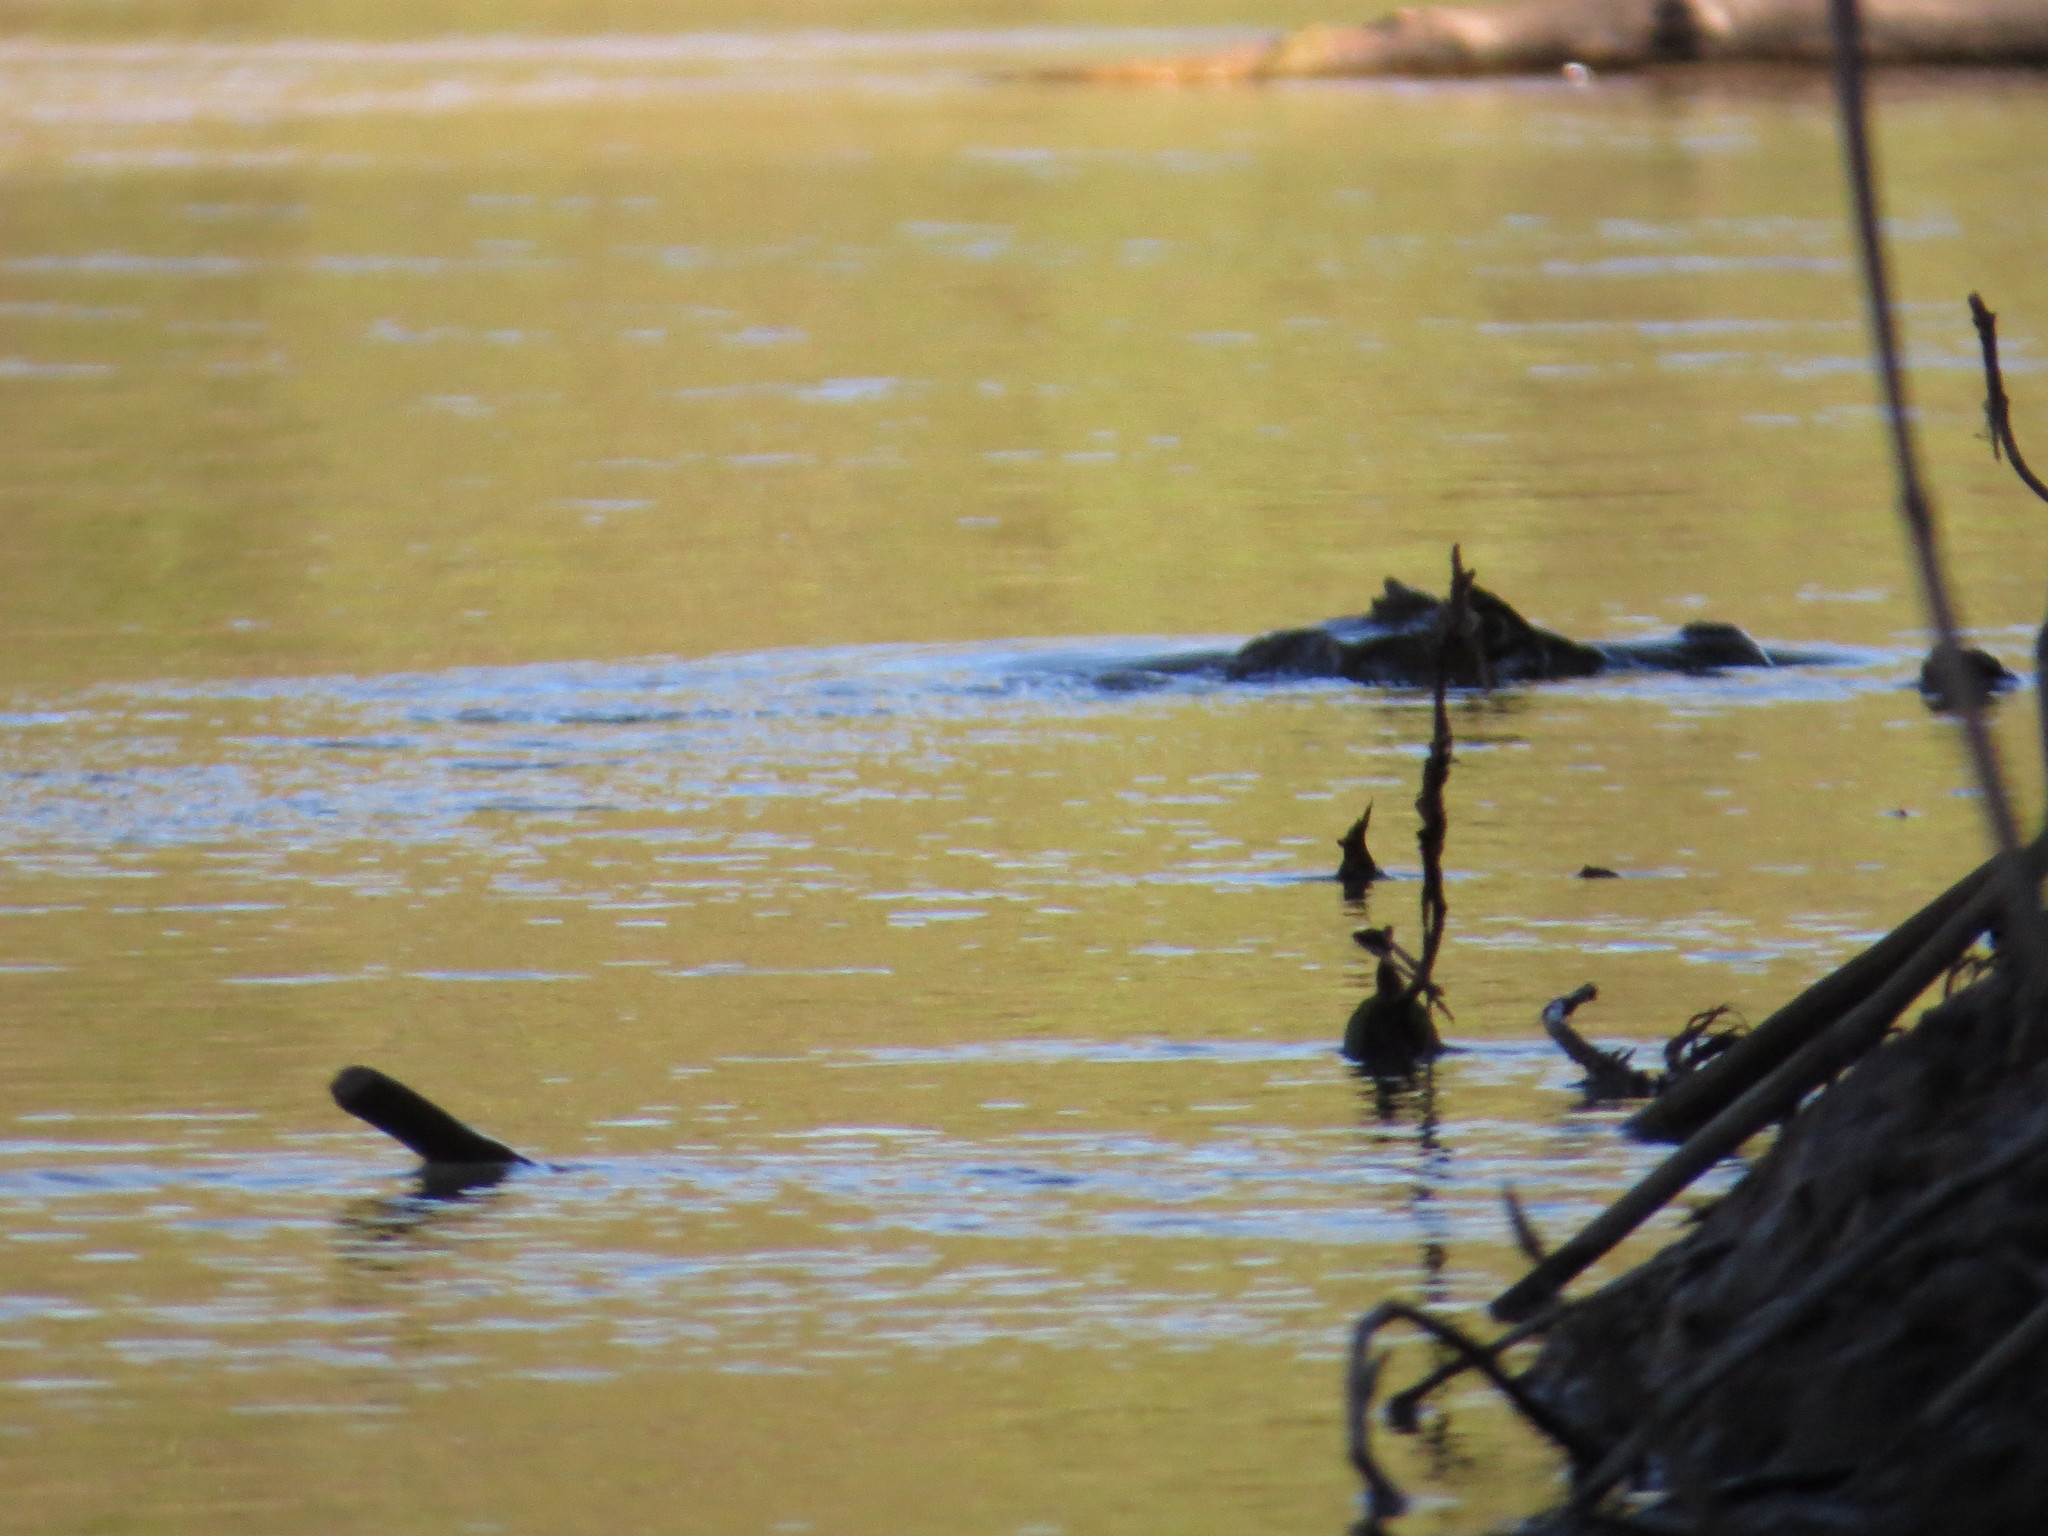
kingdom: Animalia
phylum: Chordata
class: Crocodylia
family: Alligatoridae
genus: Caiman
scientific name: Caiman yacare
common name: Yacare caiman
